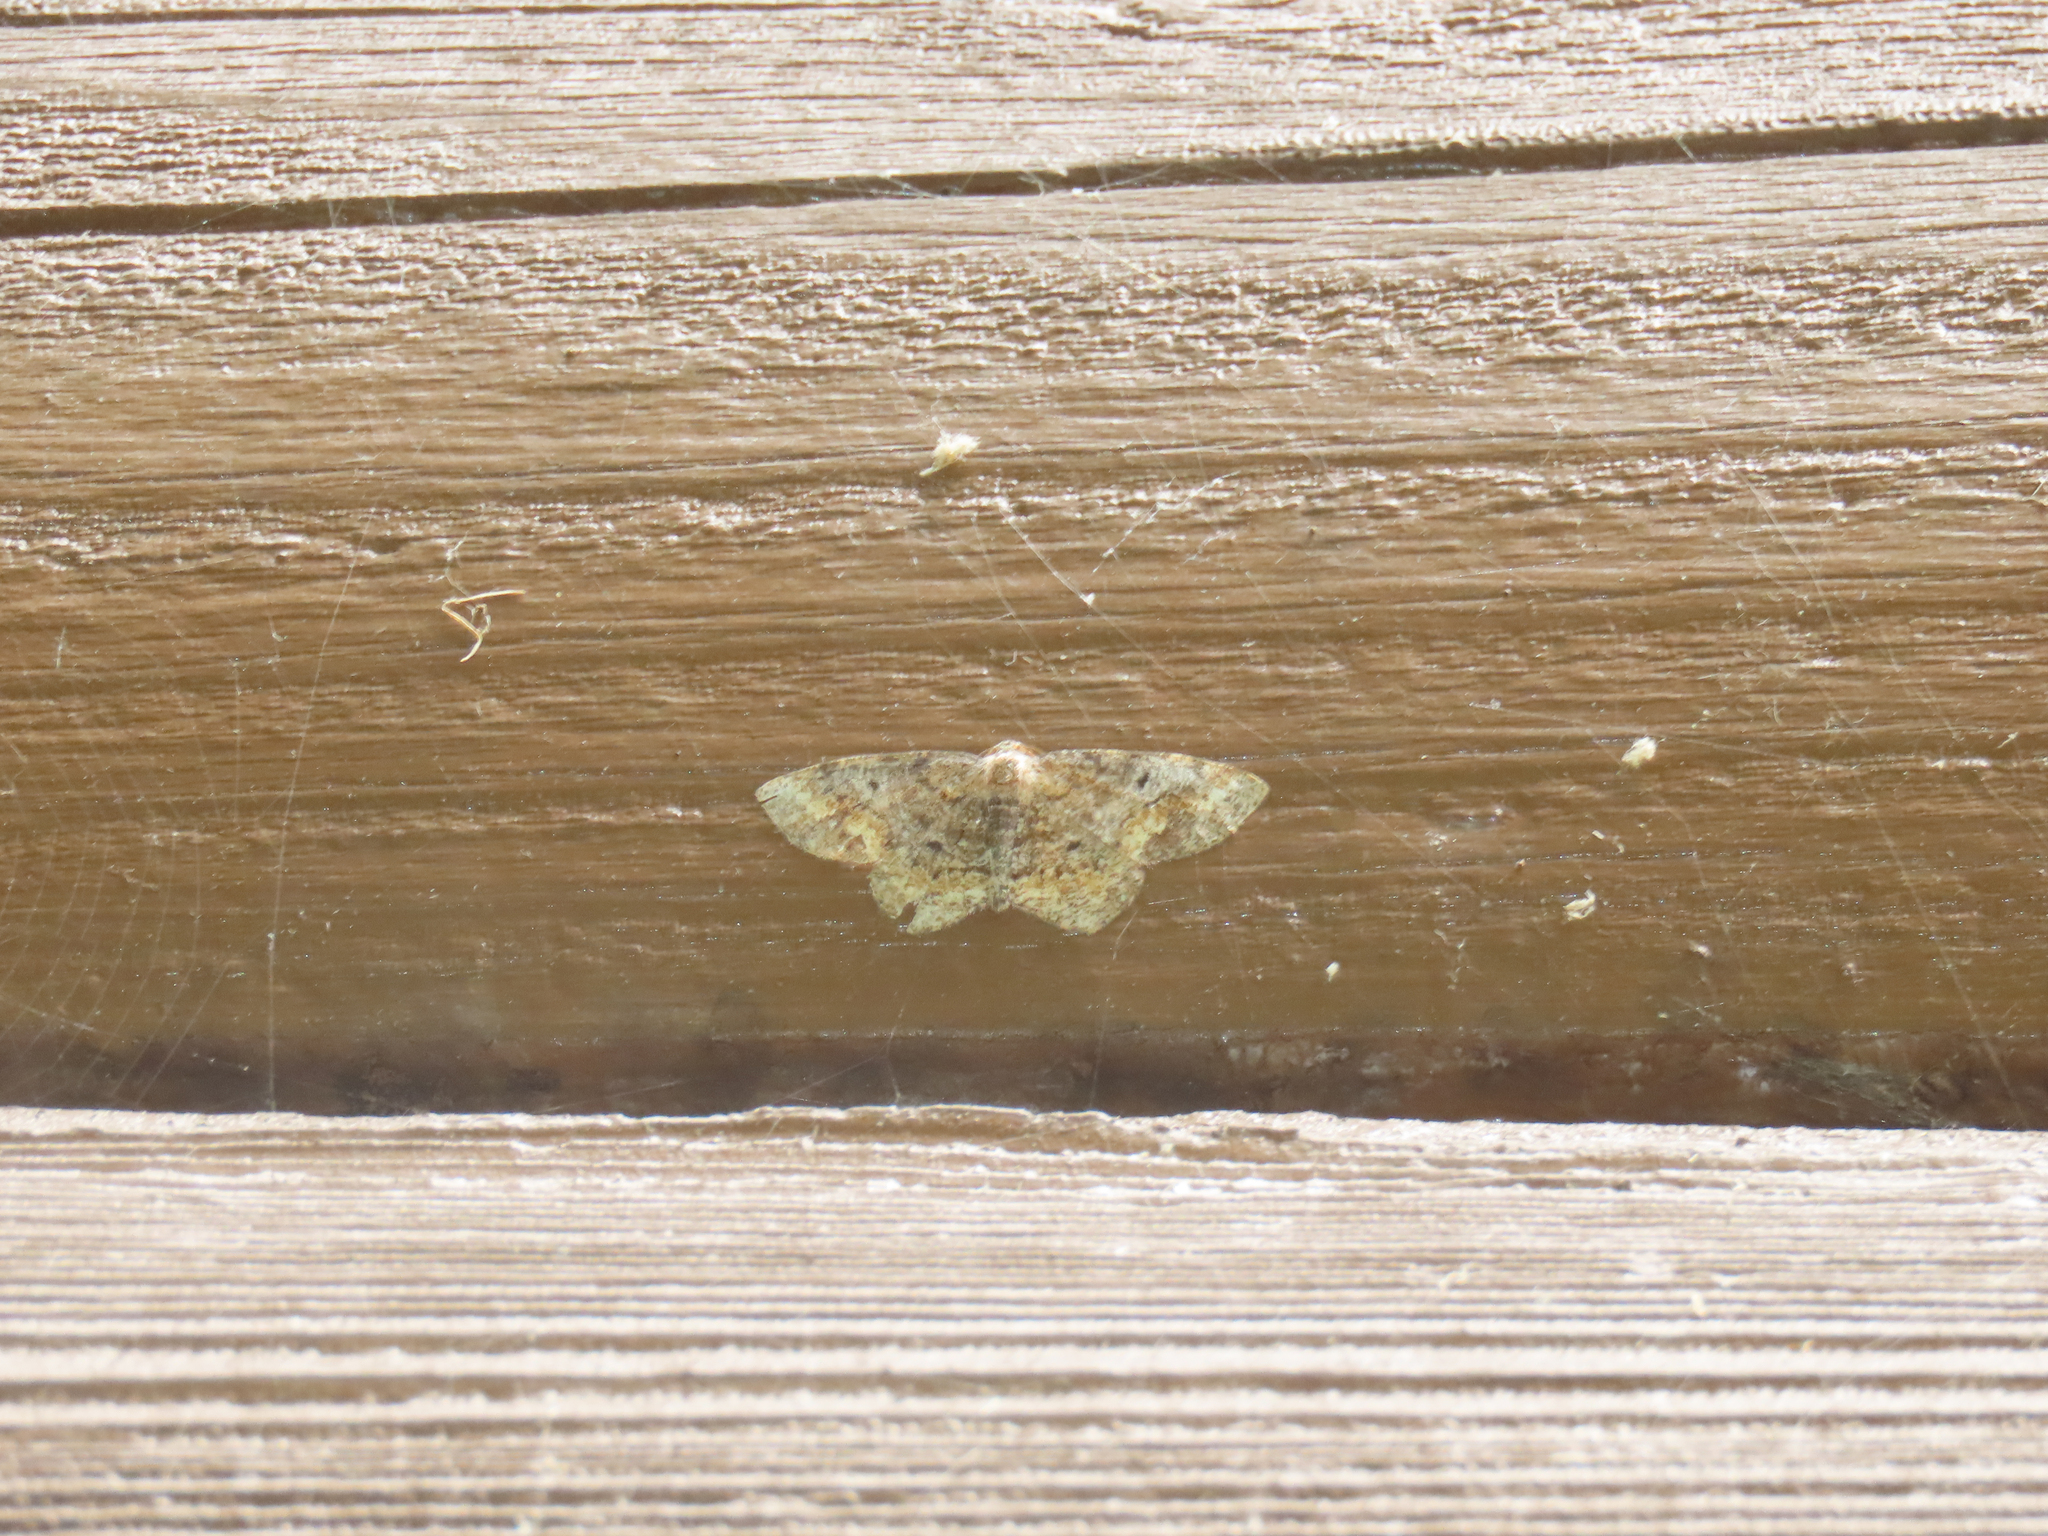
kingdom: Animalia
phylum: Arthropoda
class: Insecta
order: Lepidoptera
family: Geometridae
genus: Hypagyrtis
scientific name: Hypagyrtis unipunctata
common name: One-spotted variant
